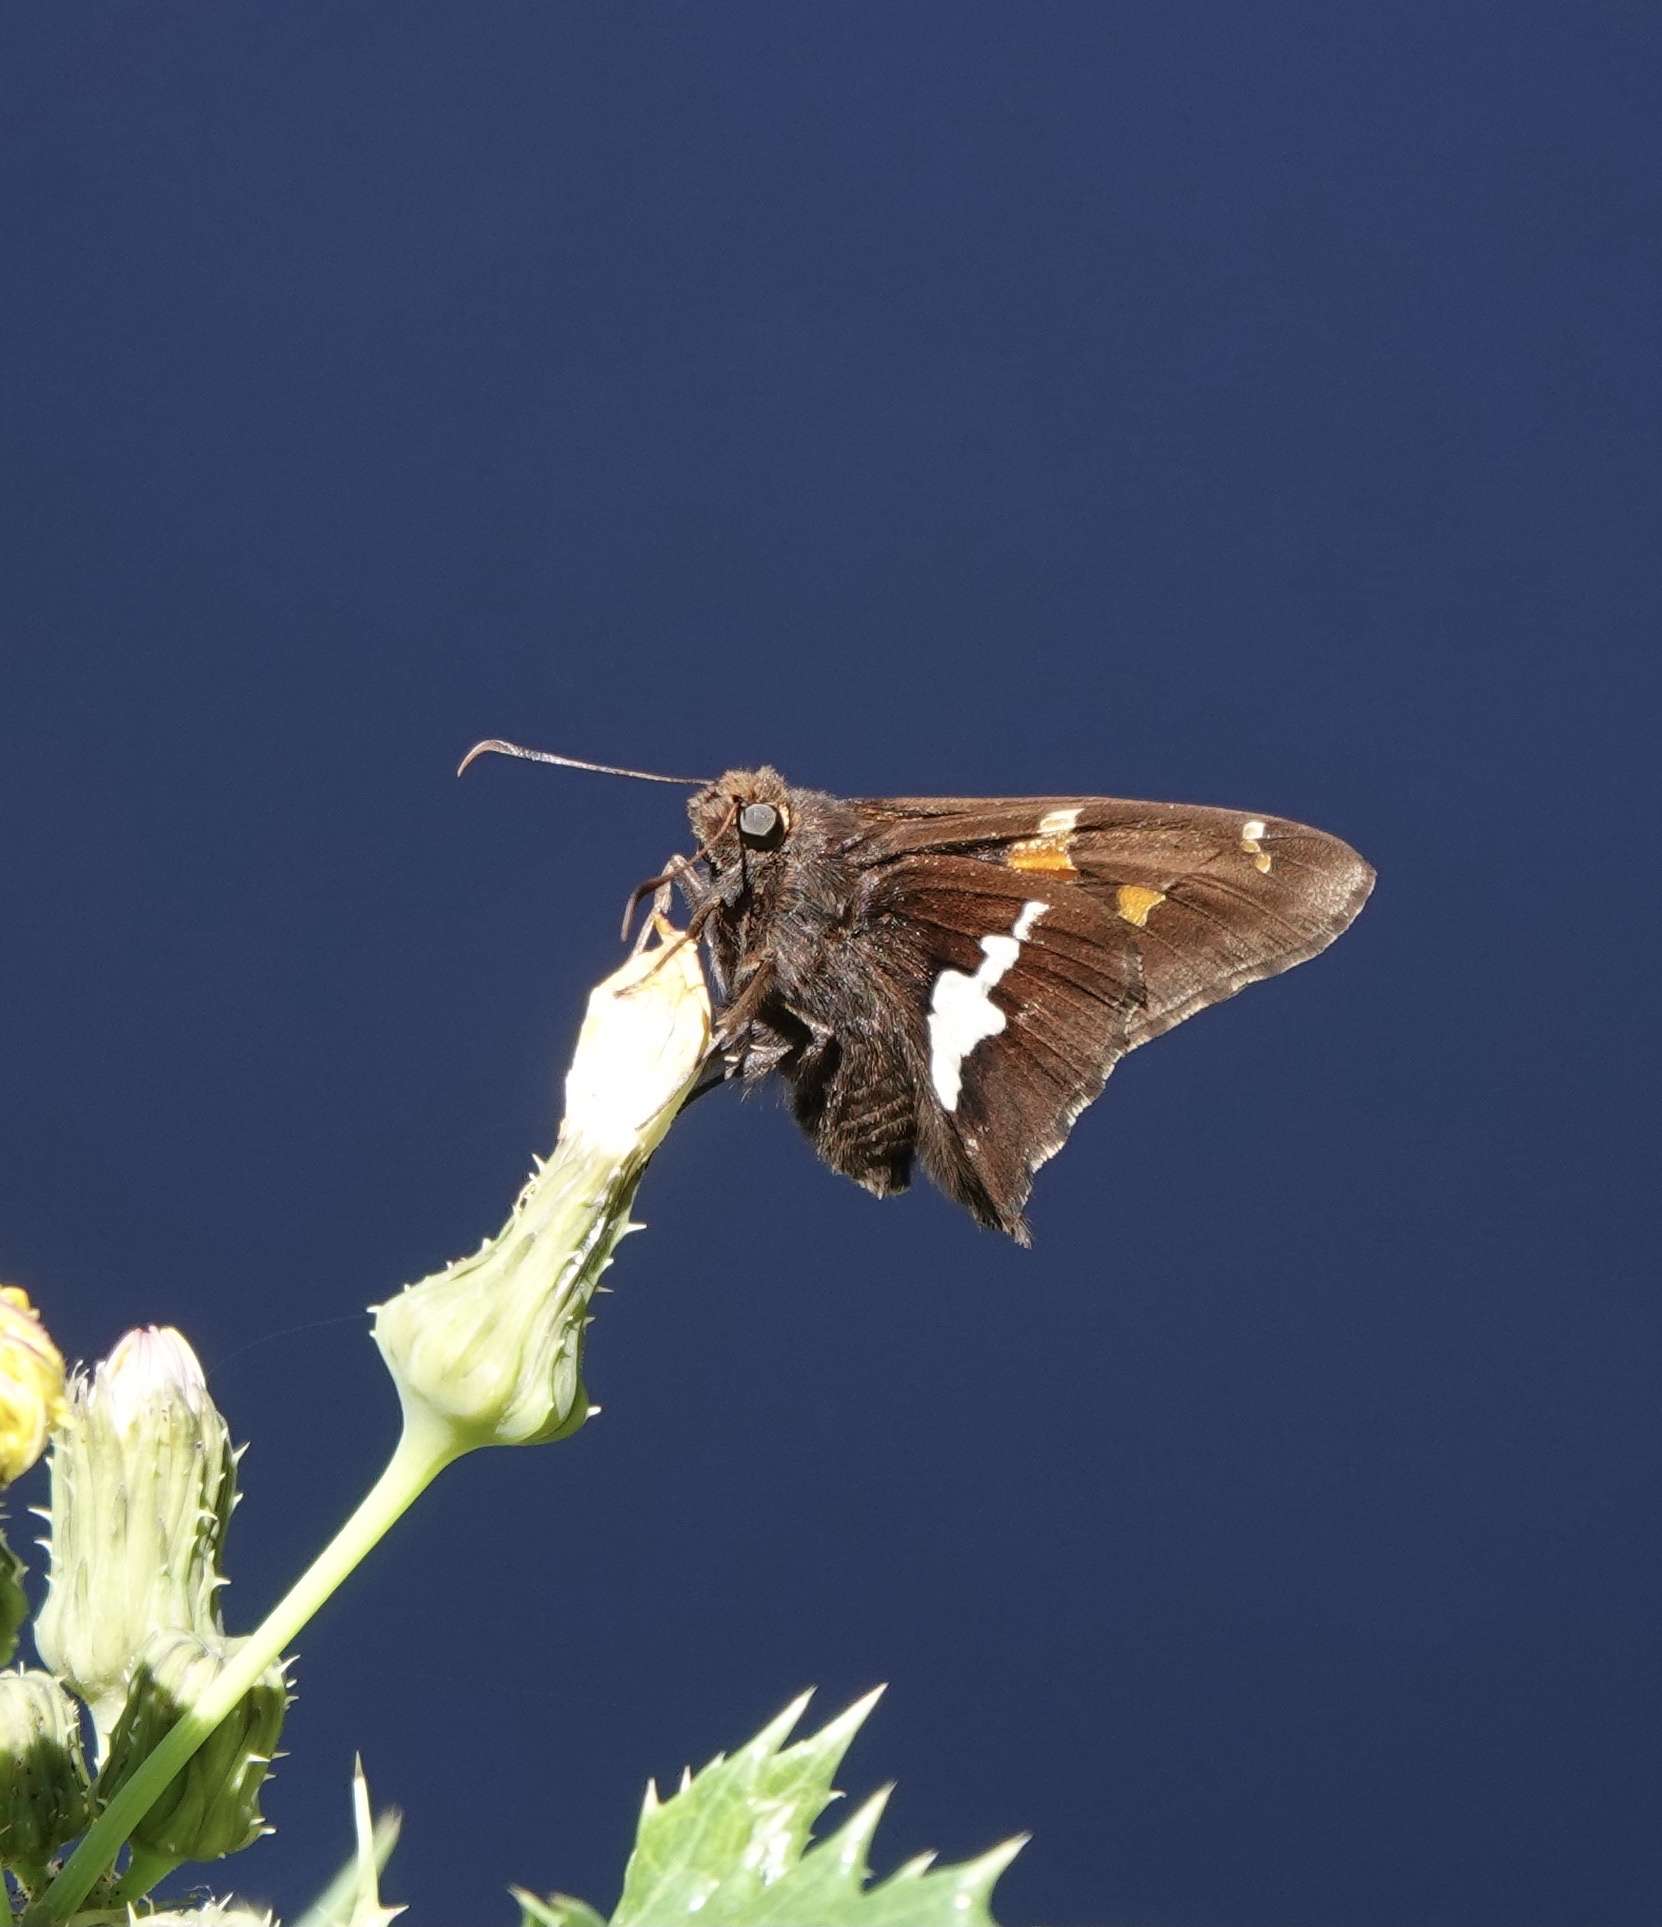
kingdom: Animalia
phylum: Arthropoda
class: Insecta
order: Lepidoptera
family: Hesperiidae
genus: Epargyreus
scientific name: Epargyreus clarus
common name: Silver-spotted skipper
